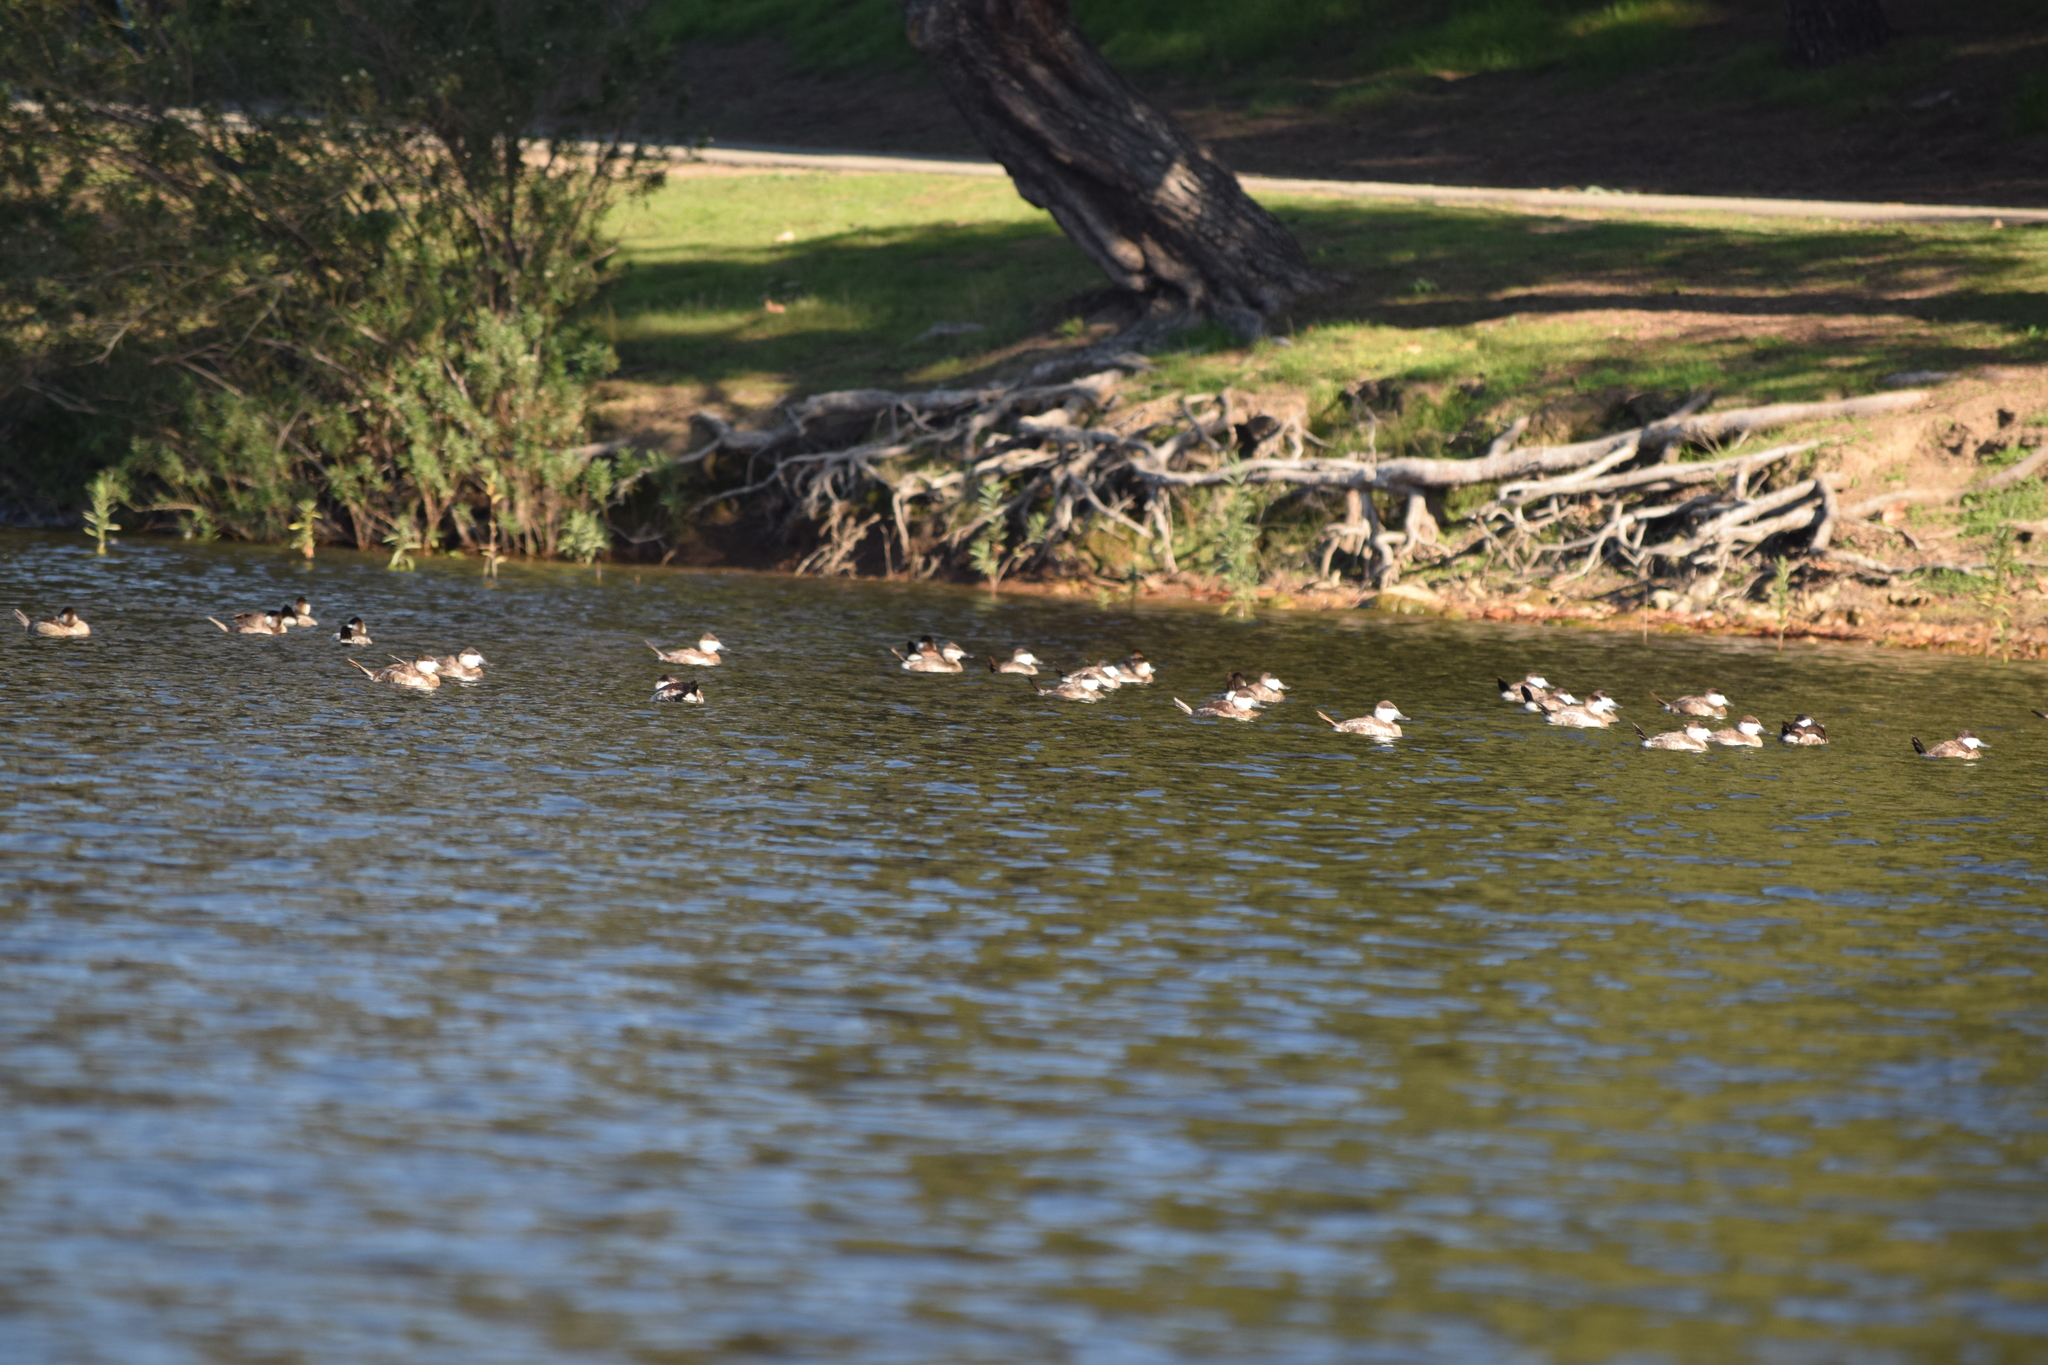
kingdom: Animalia
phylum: Chordata
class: Aves
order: Anseriformes
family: Anatidae
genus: Oxyura
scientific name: Oxyura jamaicensis
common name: Ruddy duck
